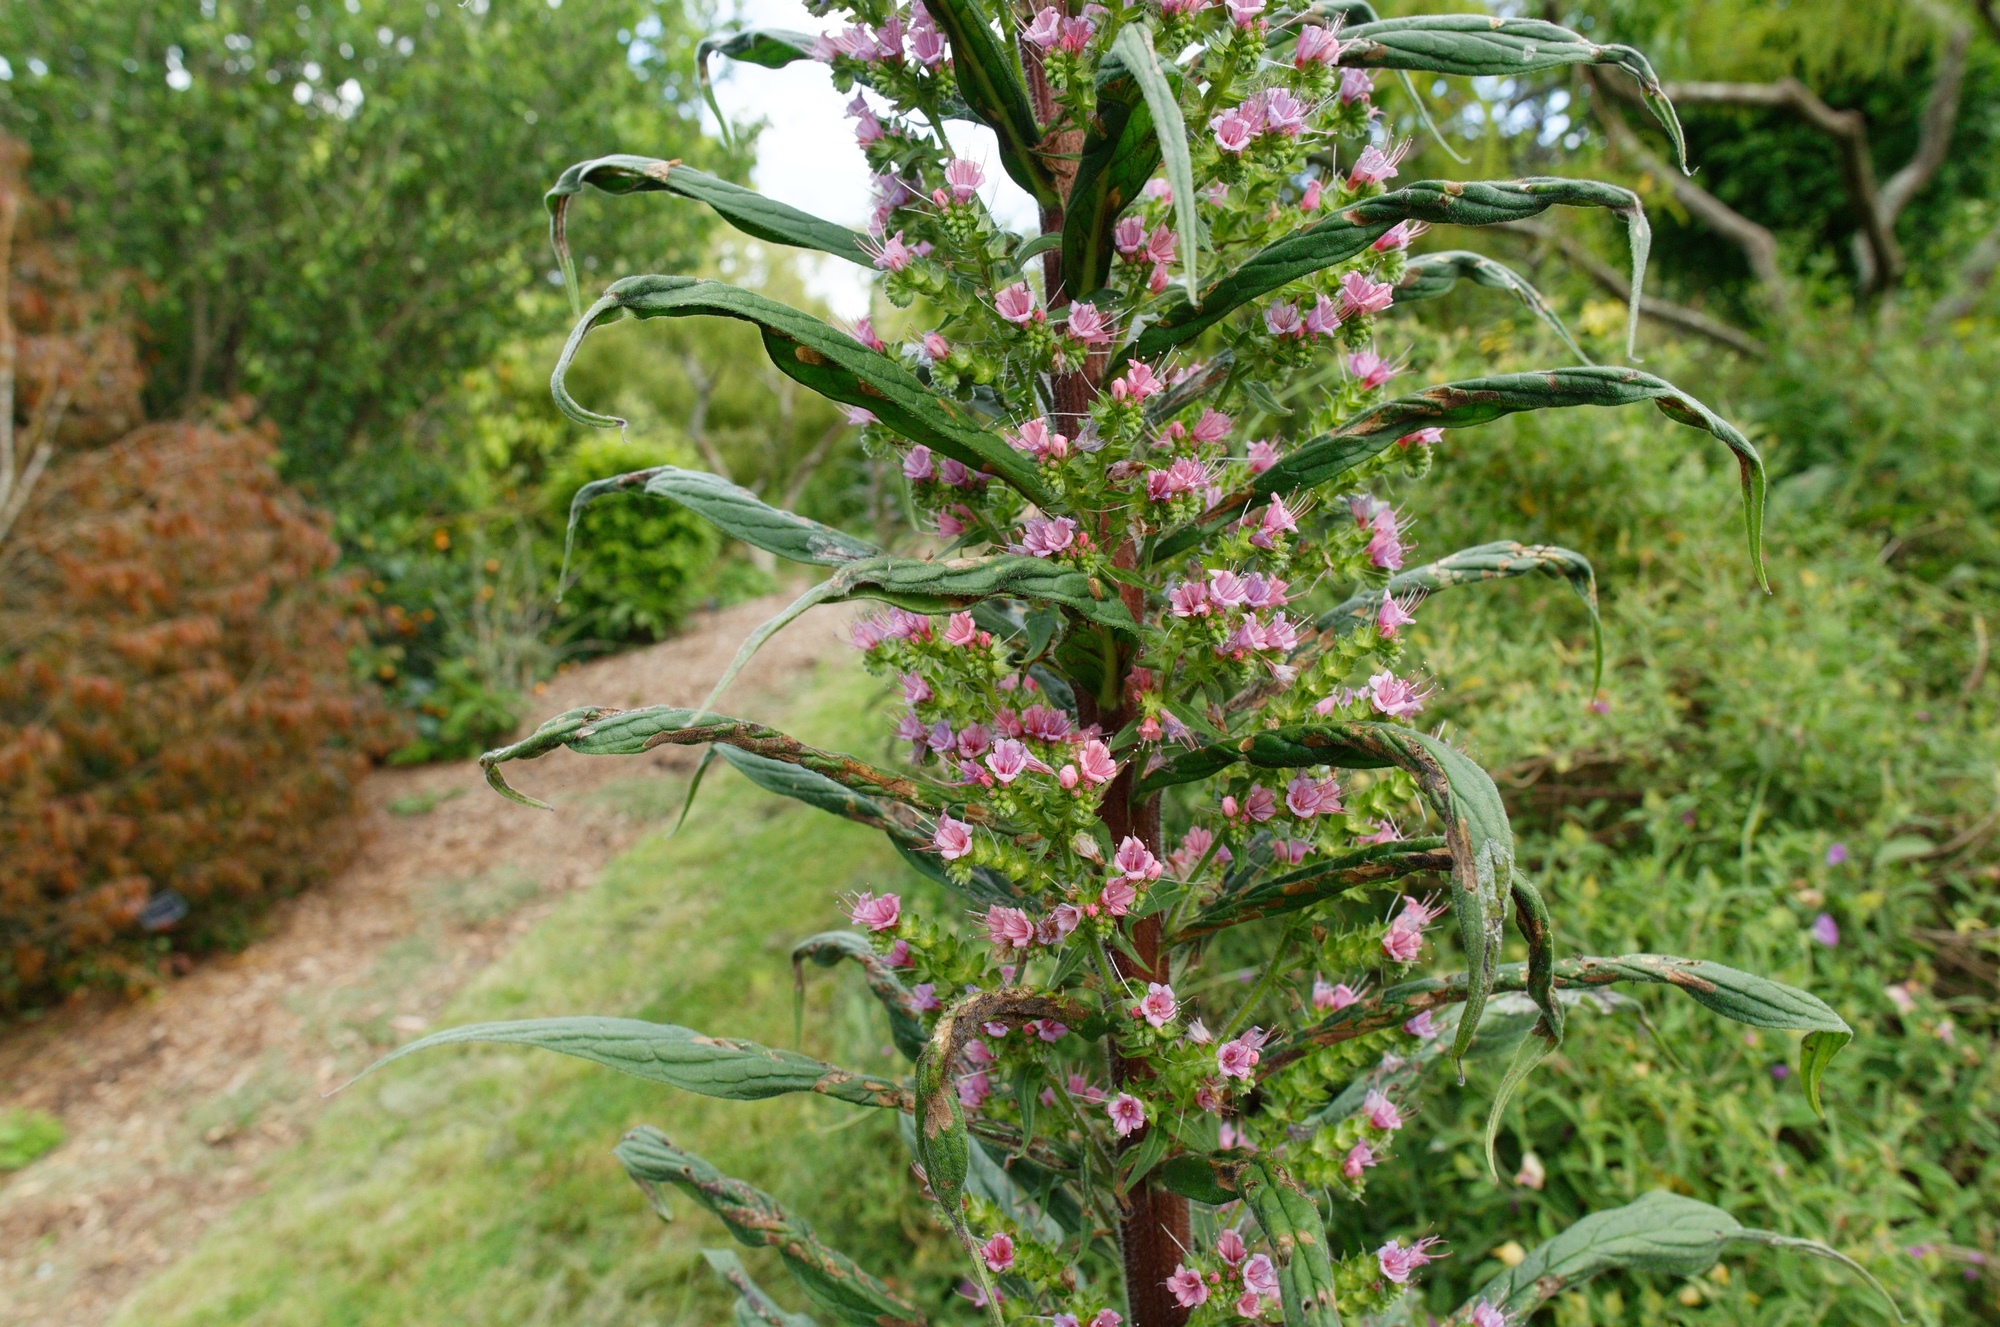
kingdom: Plantae
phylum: Tracheophyta
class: Magnoliopsida
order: Boraginales
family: Boraginaceae
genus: Echium
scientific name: Echium pininana
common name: Giant viper's-bugloss
